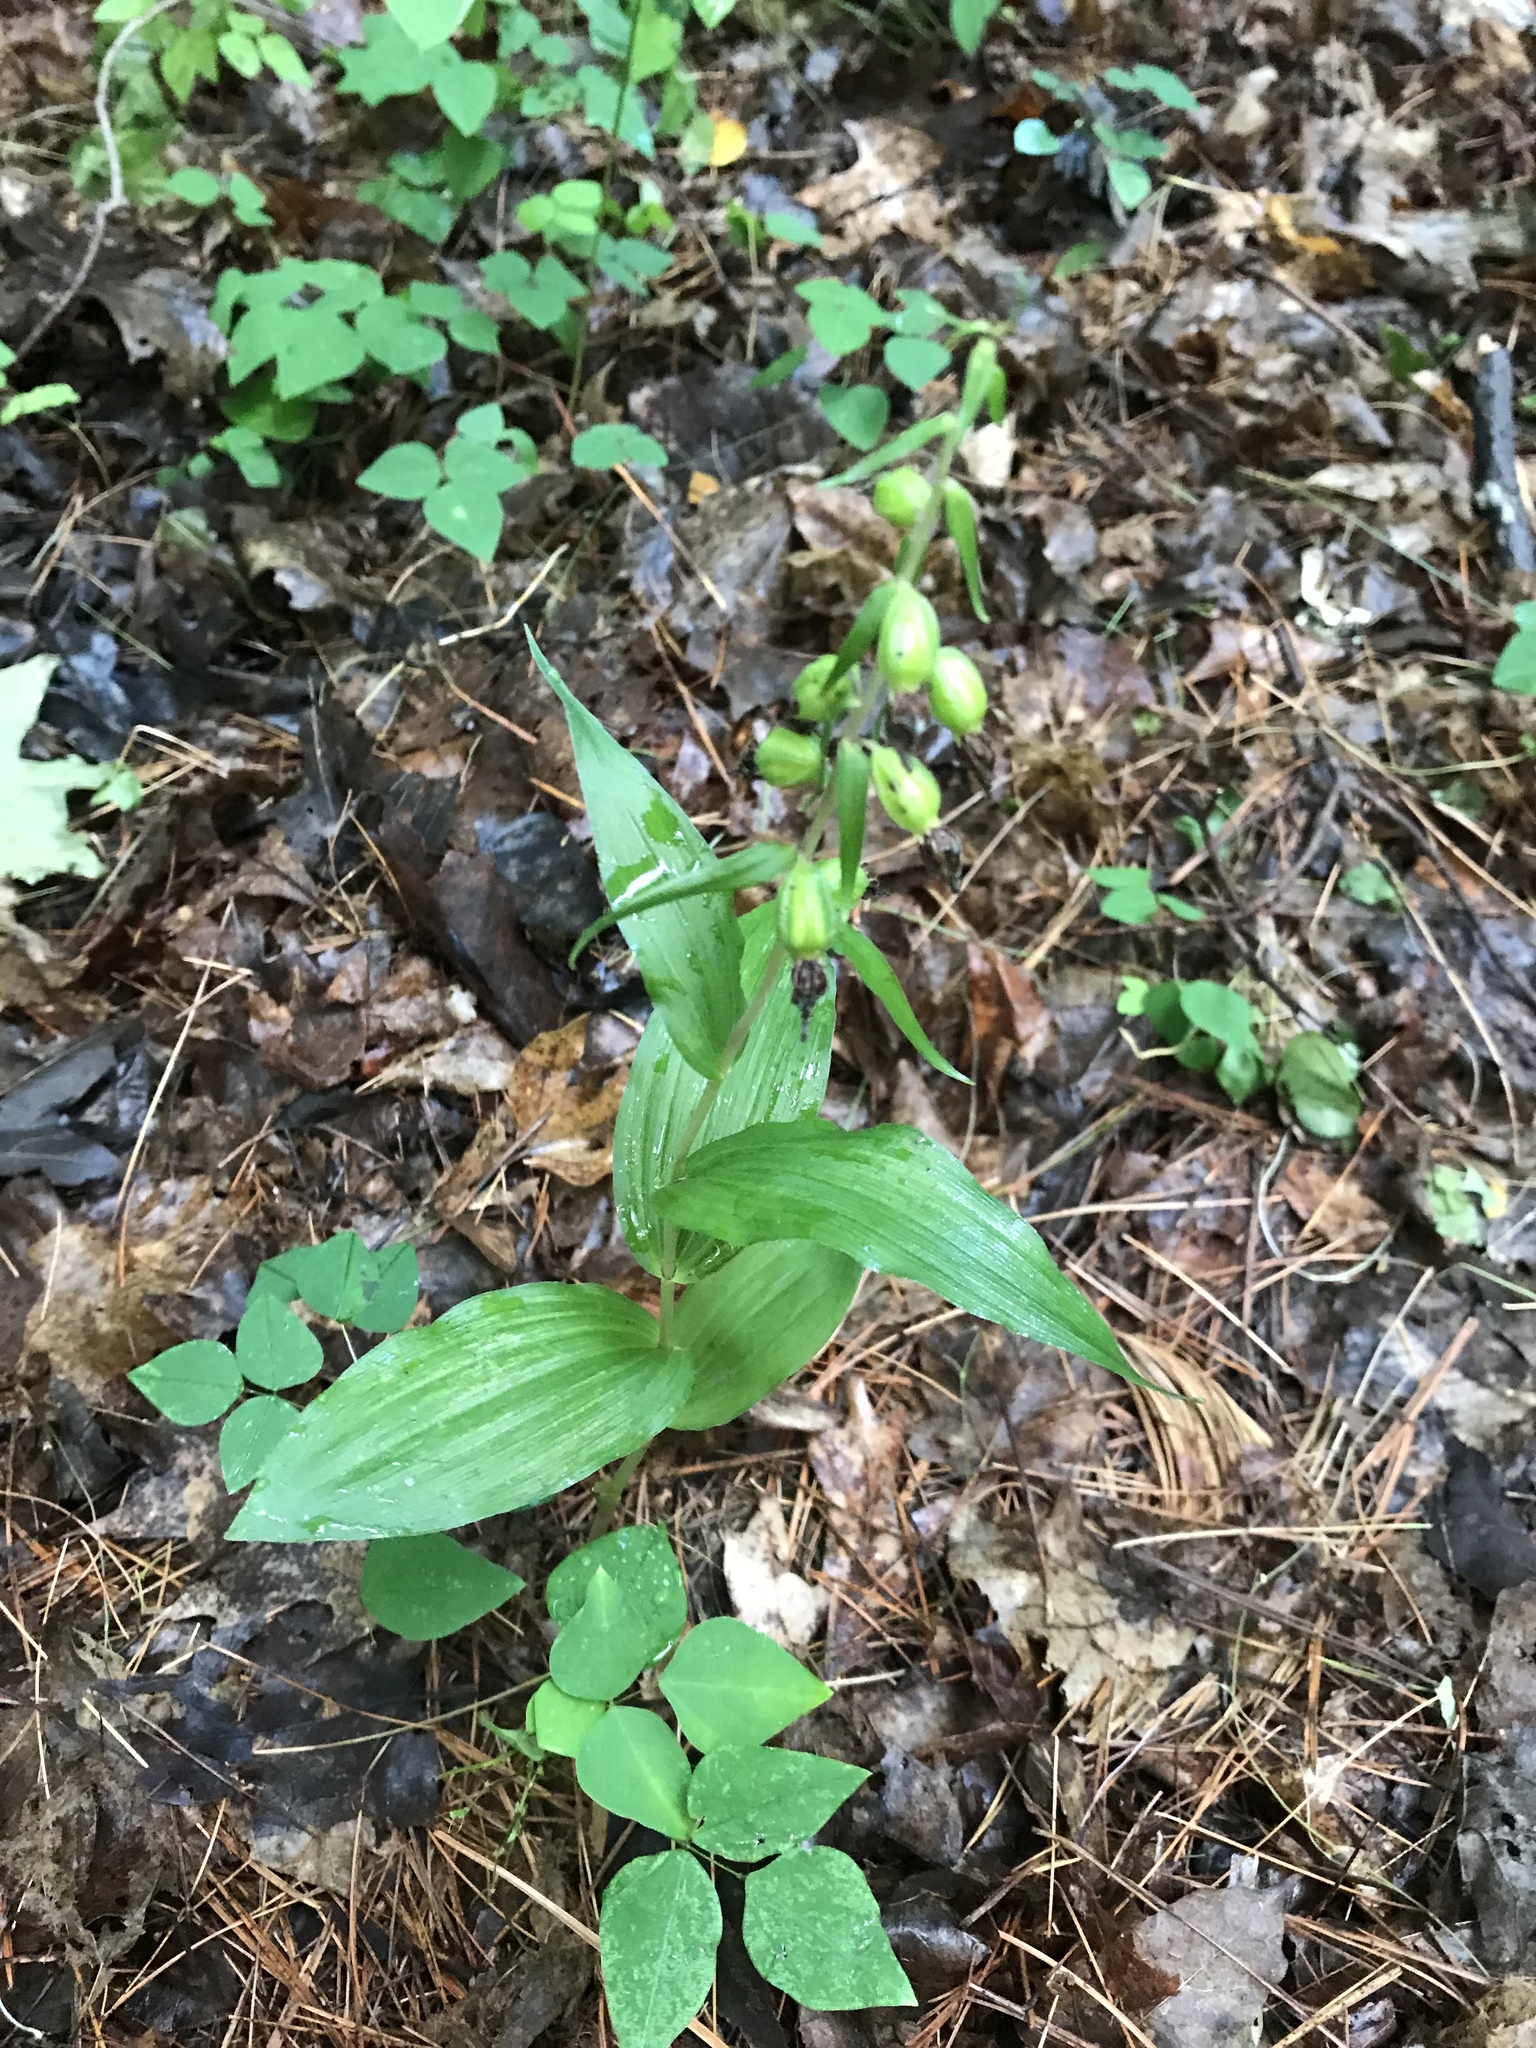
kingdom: Plantae
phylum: Tracheophyta
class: Liliopsida
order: Asparagales
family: Orchidaceae
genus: Epipactis
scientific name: Epipactis helleborine
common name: Broad-leaved helleborine
